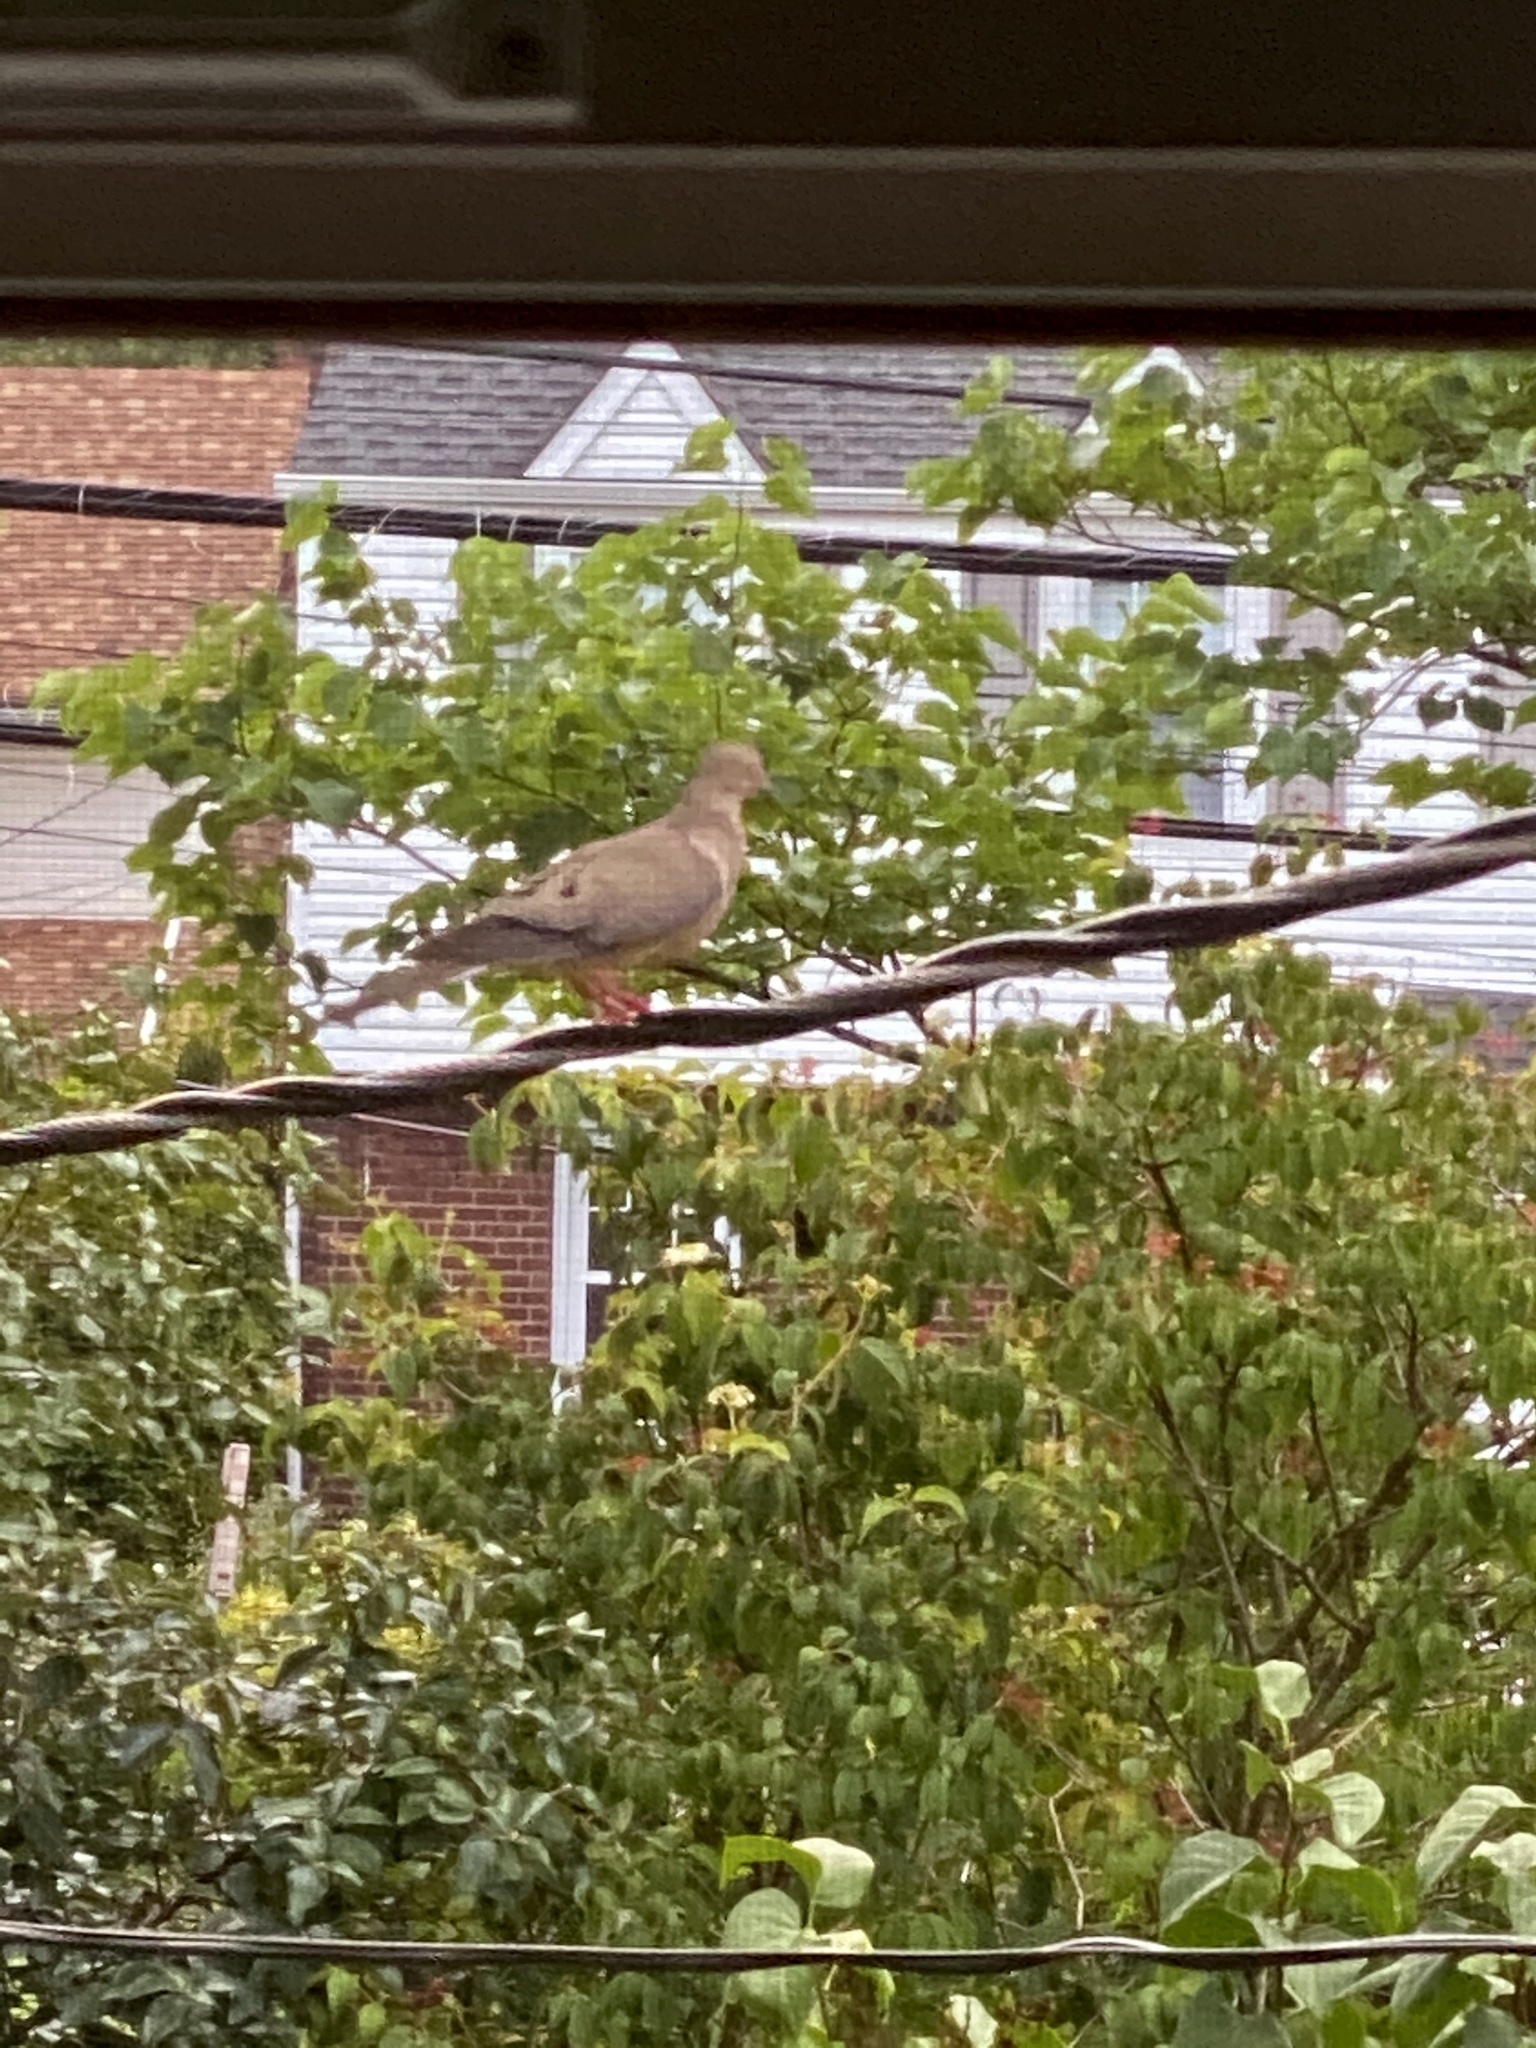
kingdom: Animalia
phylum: Chordata
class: Aves
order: Columbiformes
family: Columbidae
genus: Zenaida
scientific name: Zenaida macroura
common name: Mourning dove
